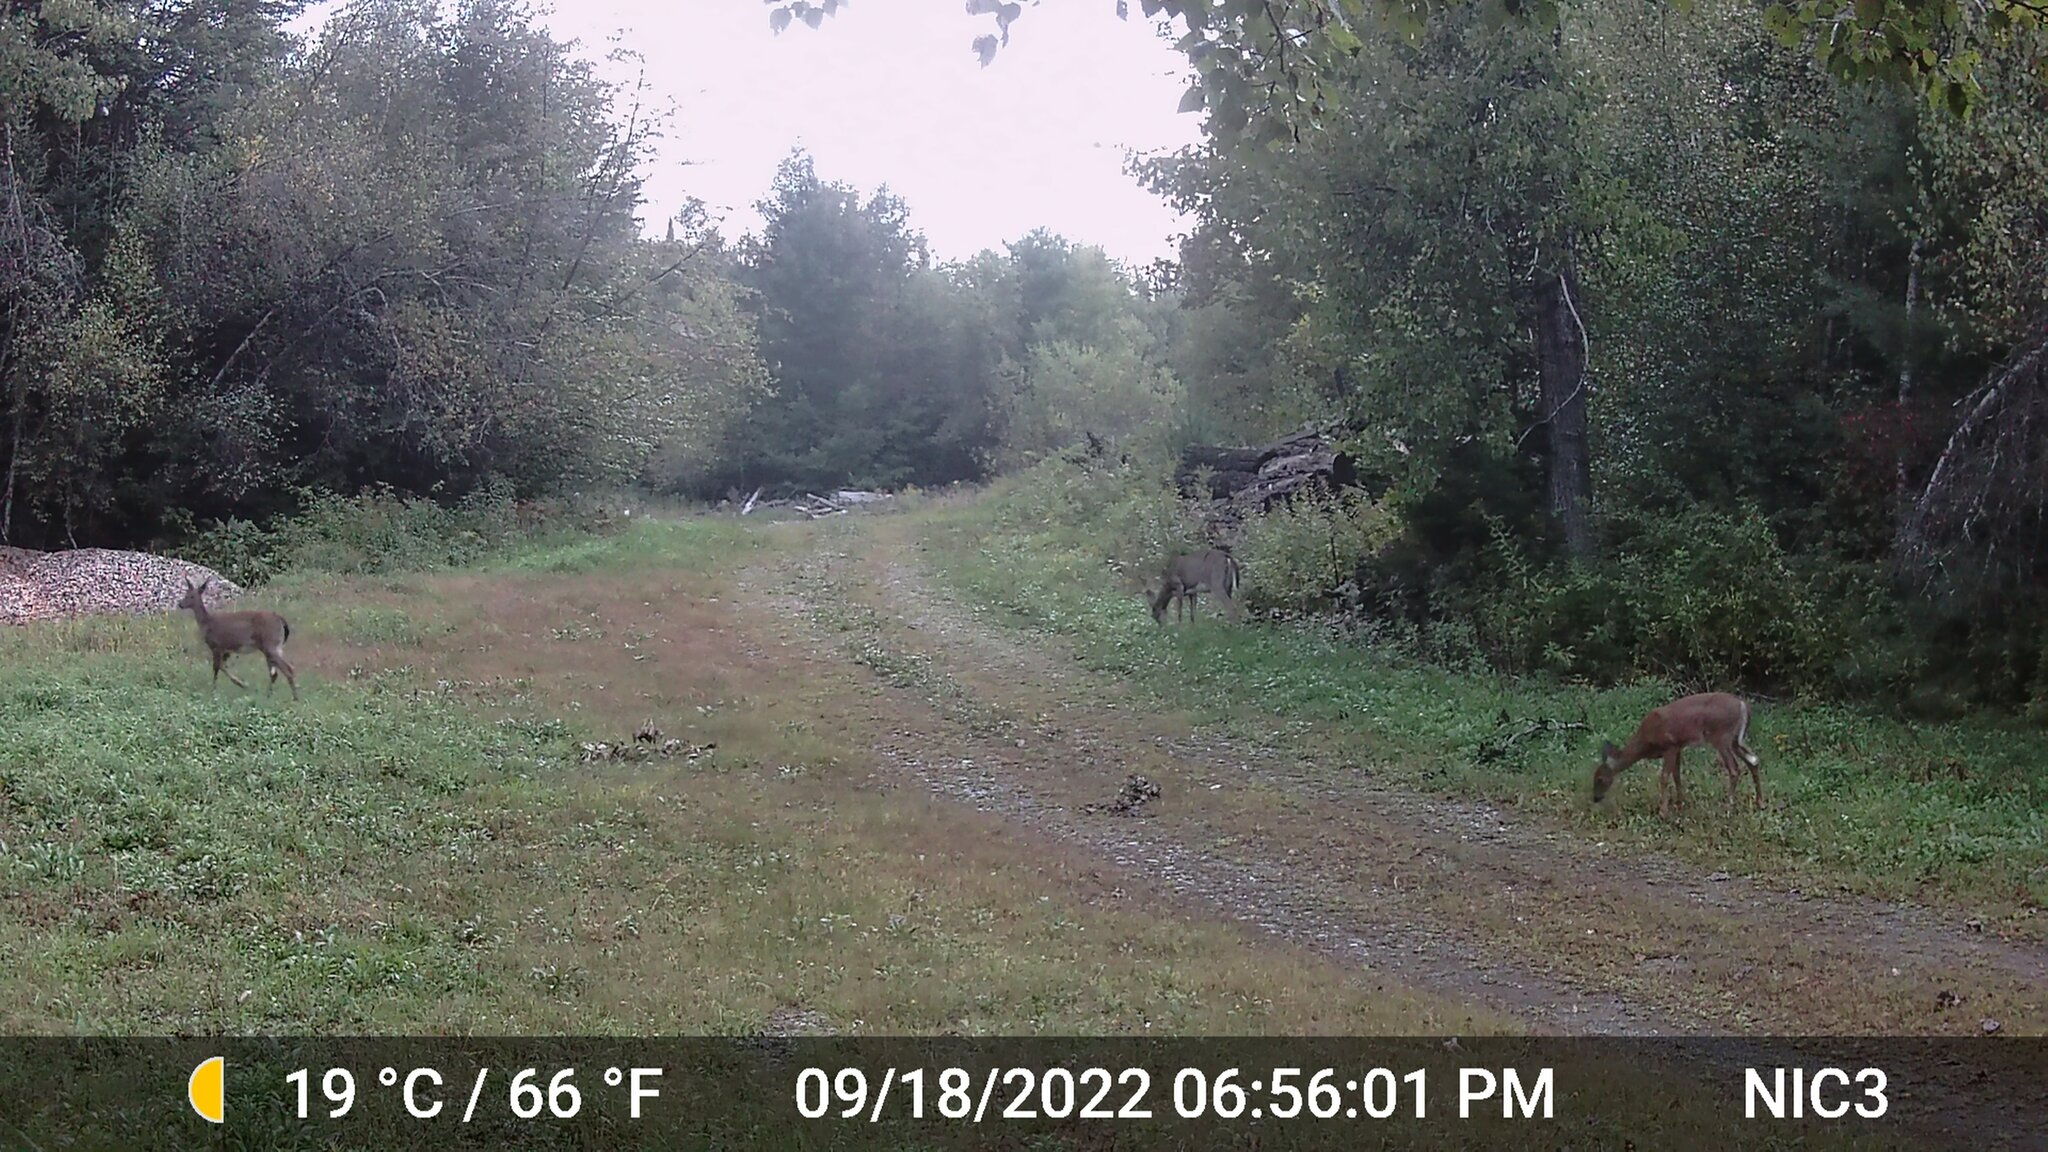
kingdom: Animalia
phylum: Chordata
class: Mammalia
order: Artiodactyla
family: Cervidae
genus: Odocoileus
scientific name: Odocoileus virginianus
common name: White-tailed deer
